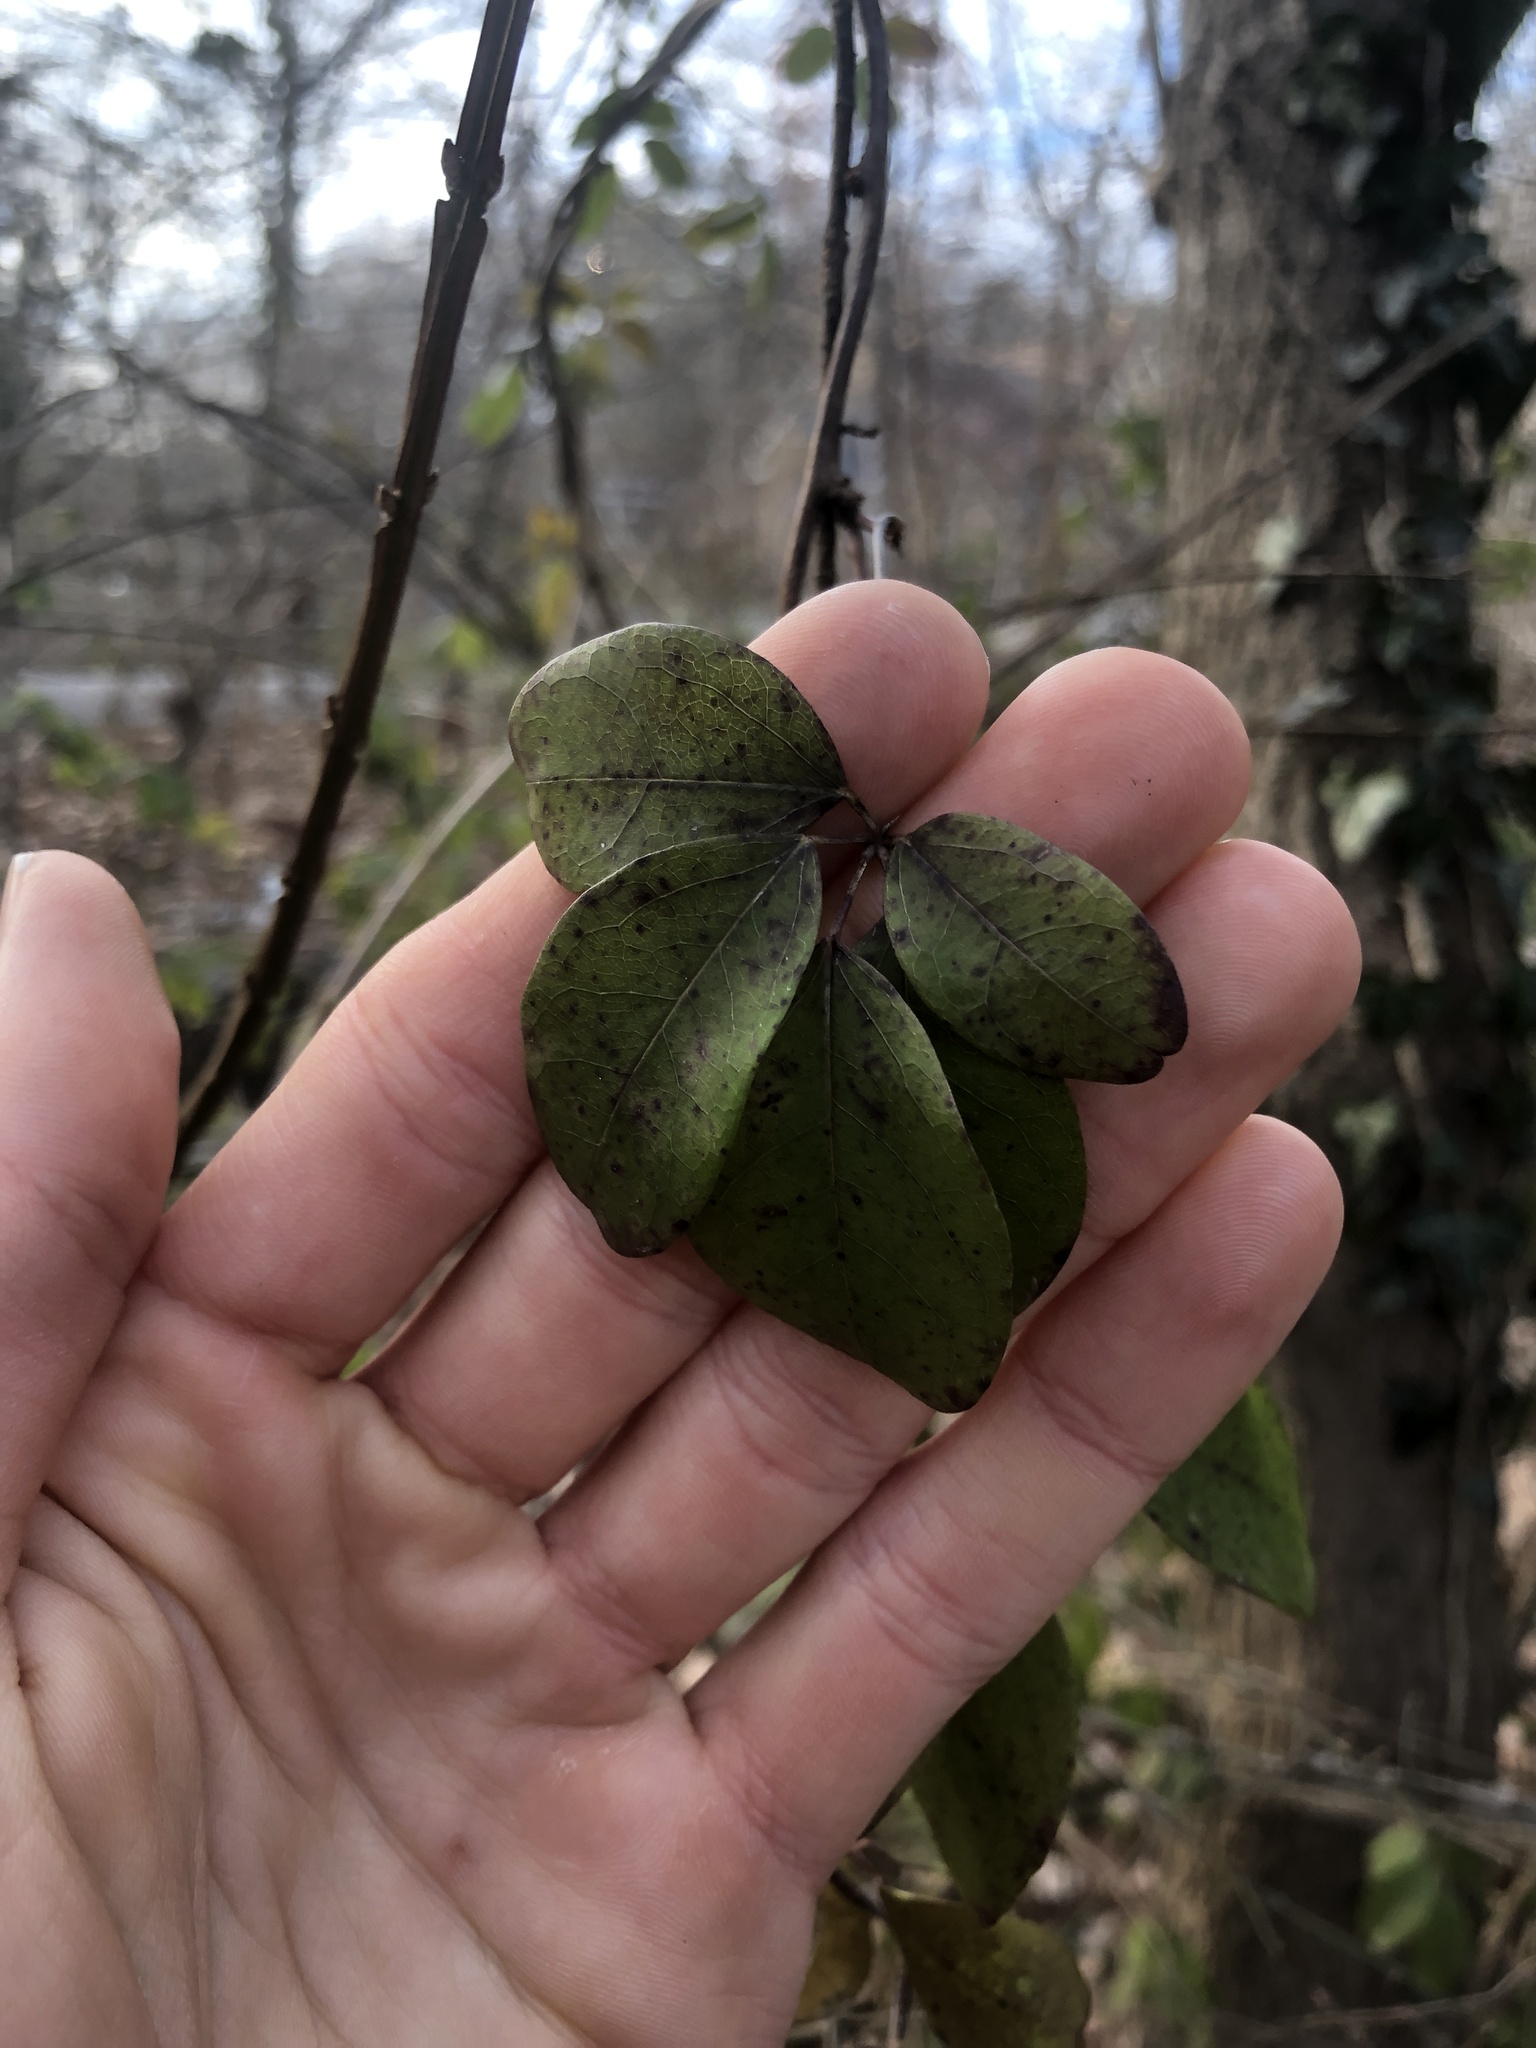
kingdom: Plantae
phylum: Tracheophyta
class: Magnoliopsida
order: Ranunculales
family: Lardizabalaceae
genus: Akebia
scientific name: Akebia quinata
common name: Five-leaf akebia
